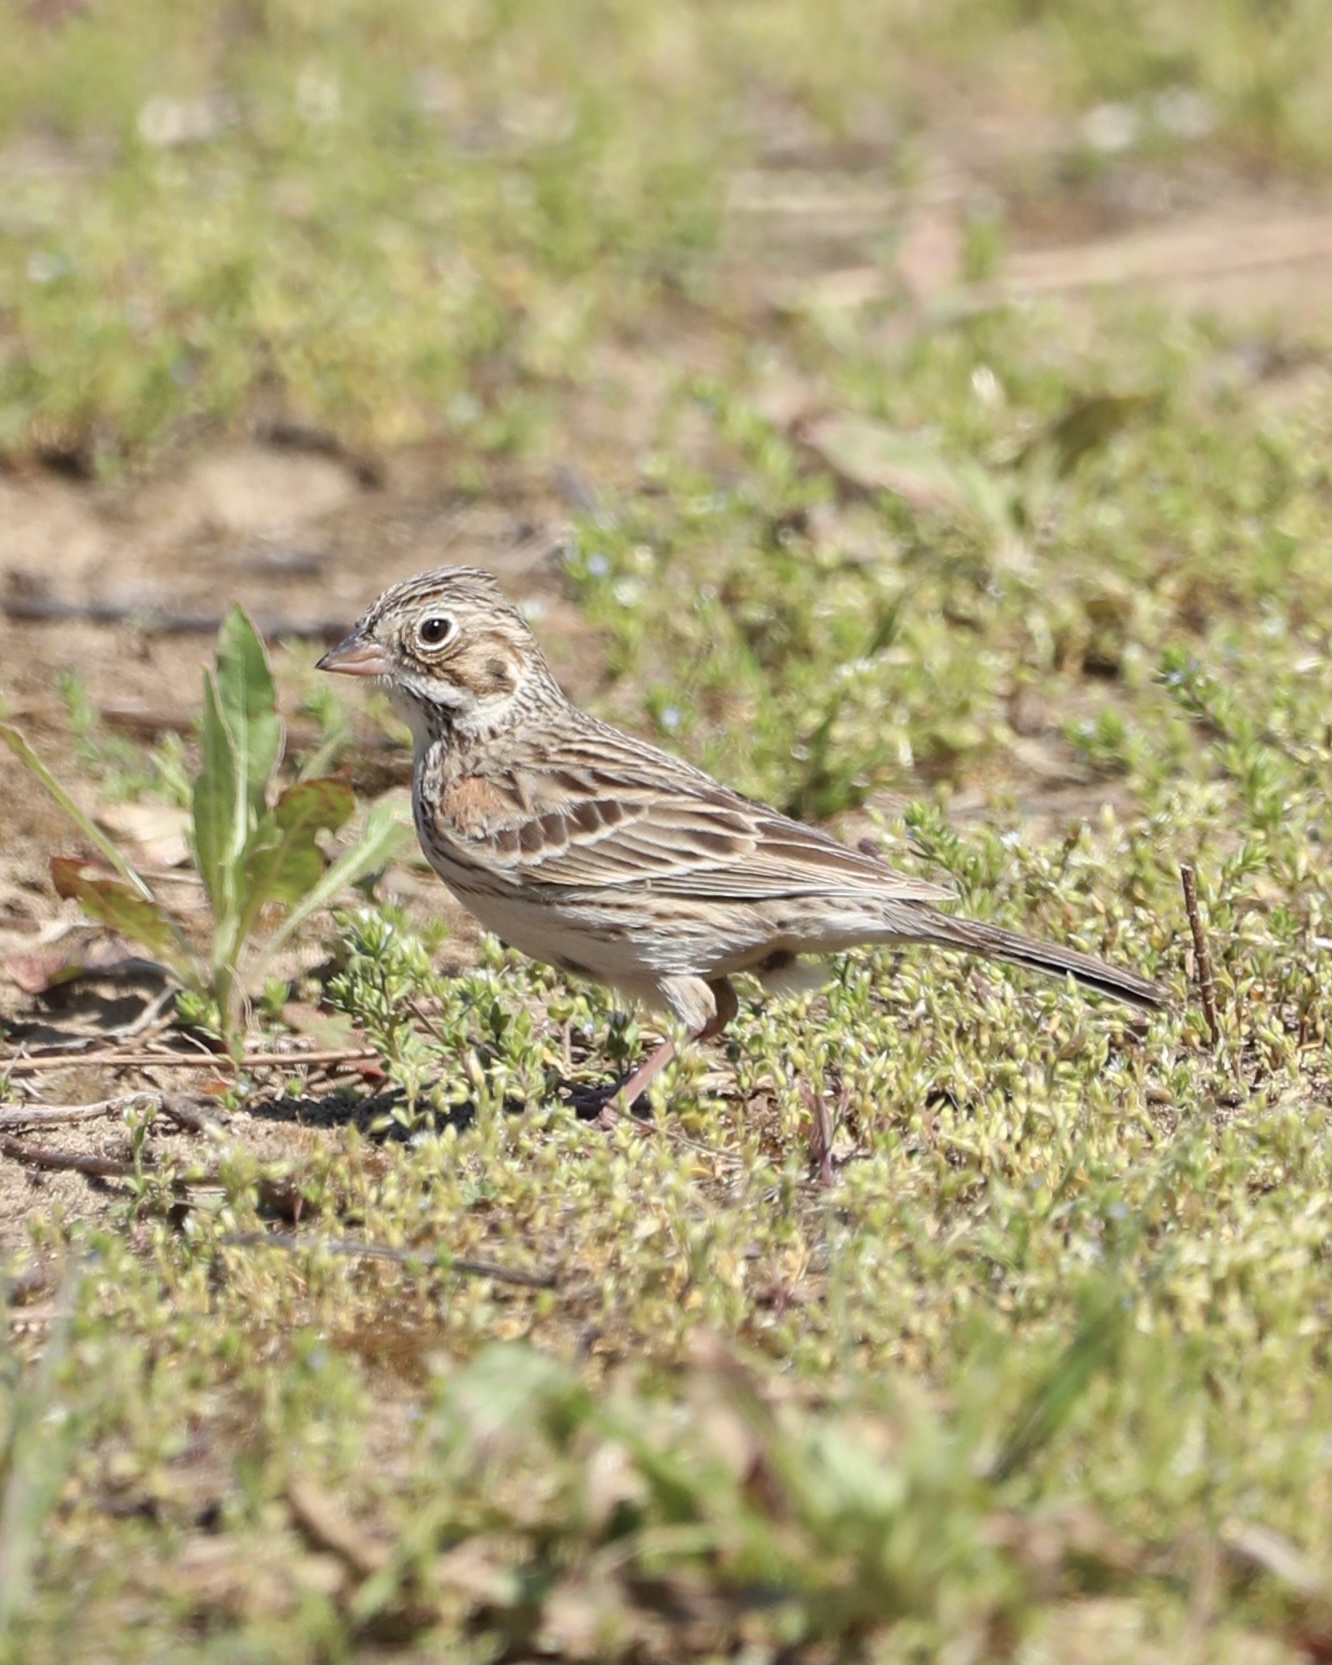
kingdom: Animalia
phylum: Chordata
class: Aves
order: Passeriformes
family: Passerellidae
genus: Pooecetes
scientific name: Pooecetes gramineus
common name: Vesper sparrow
